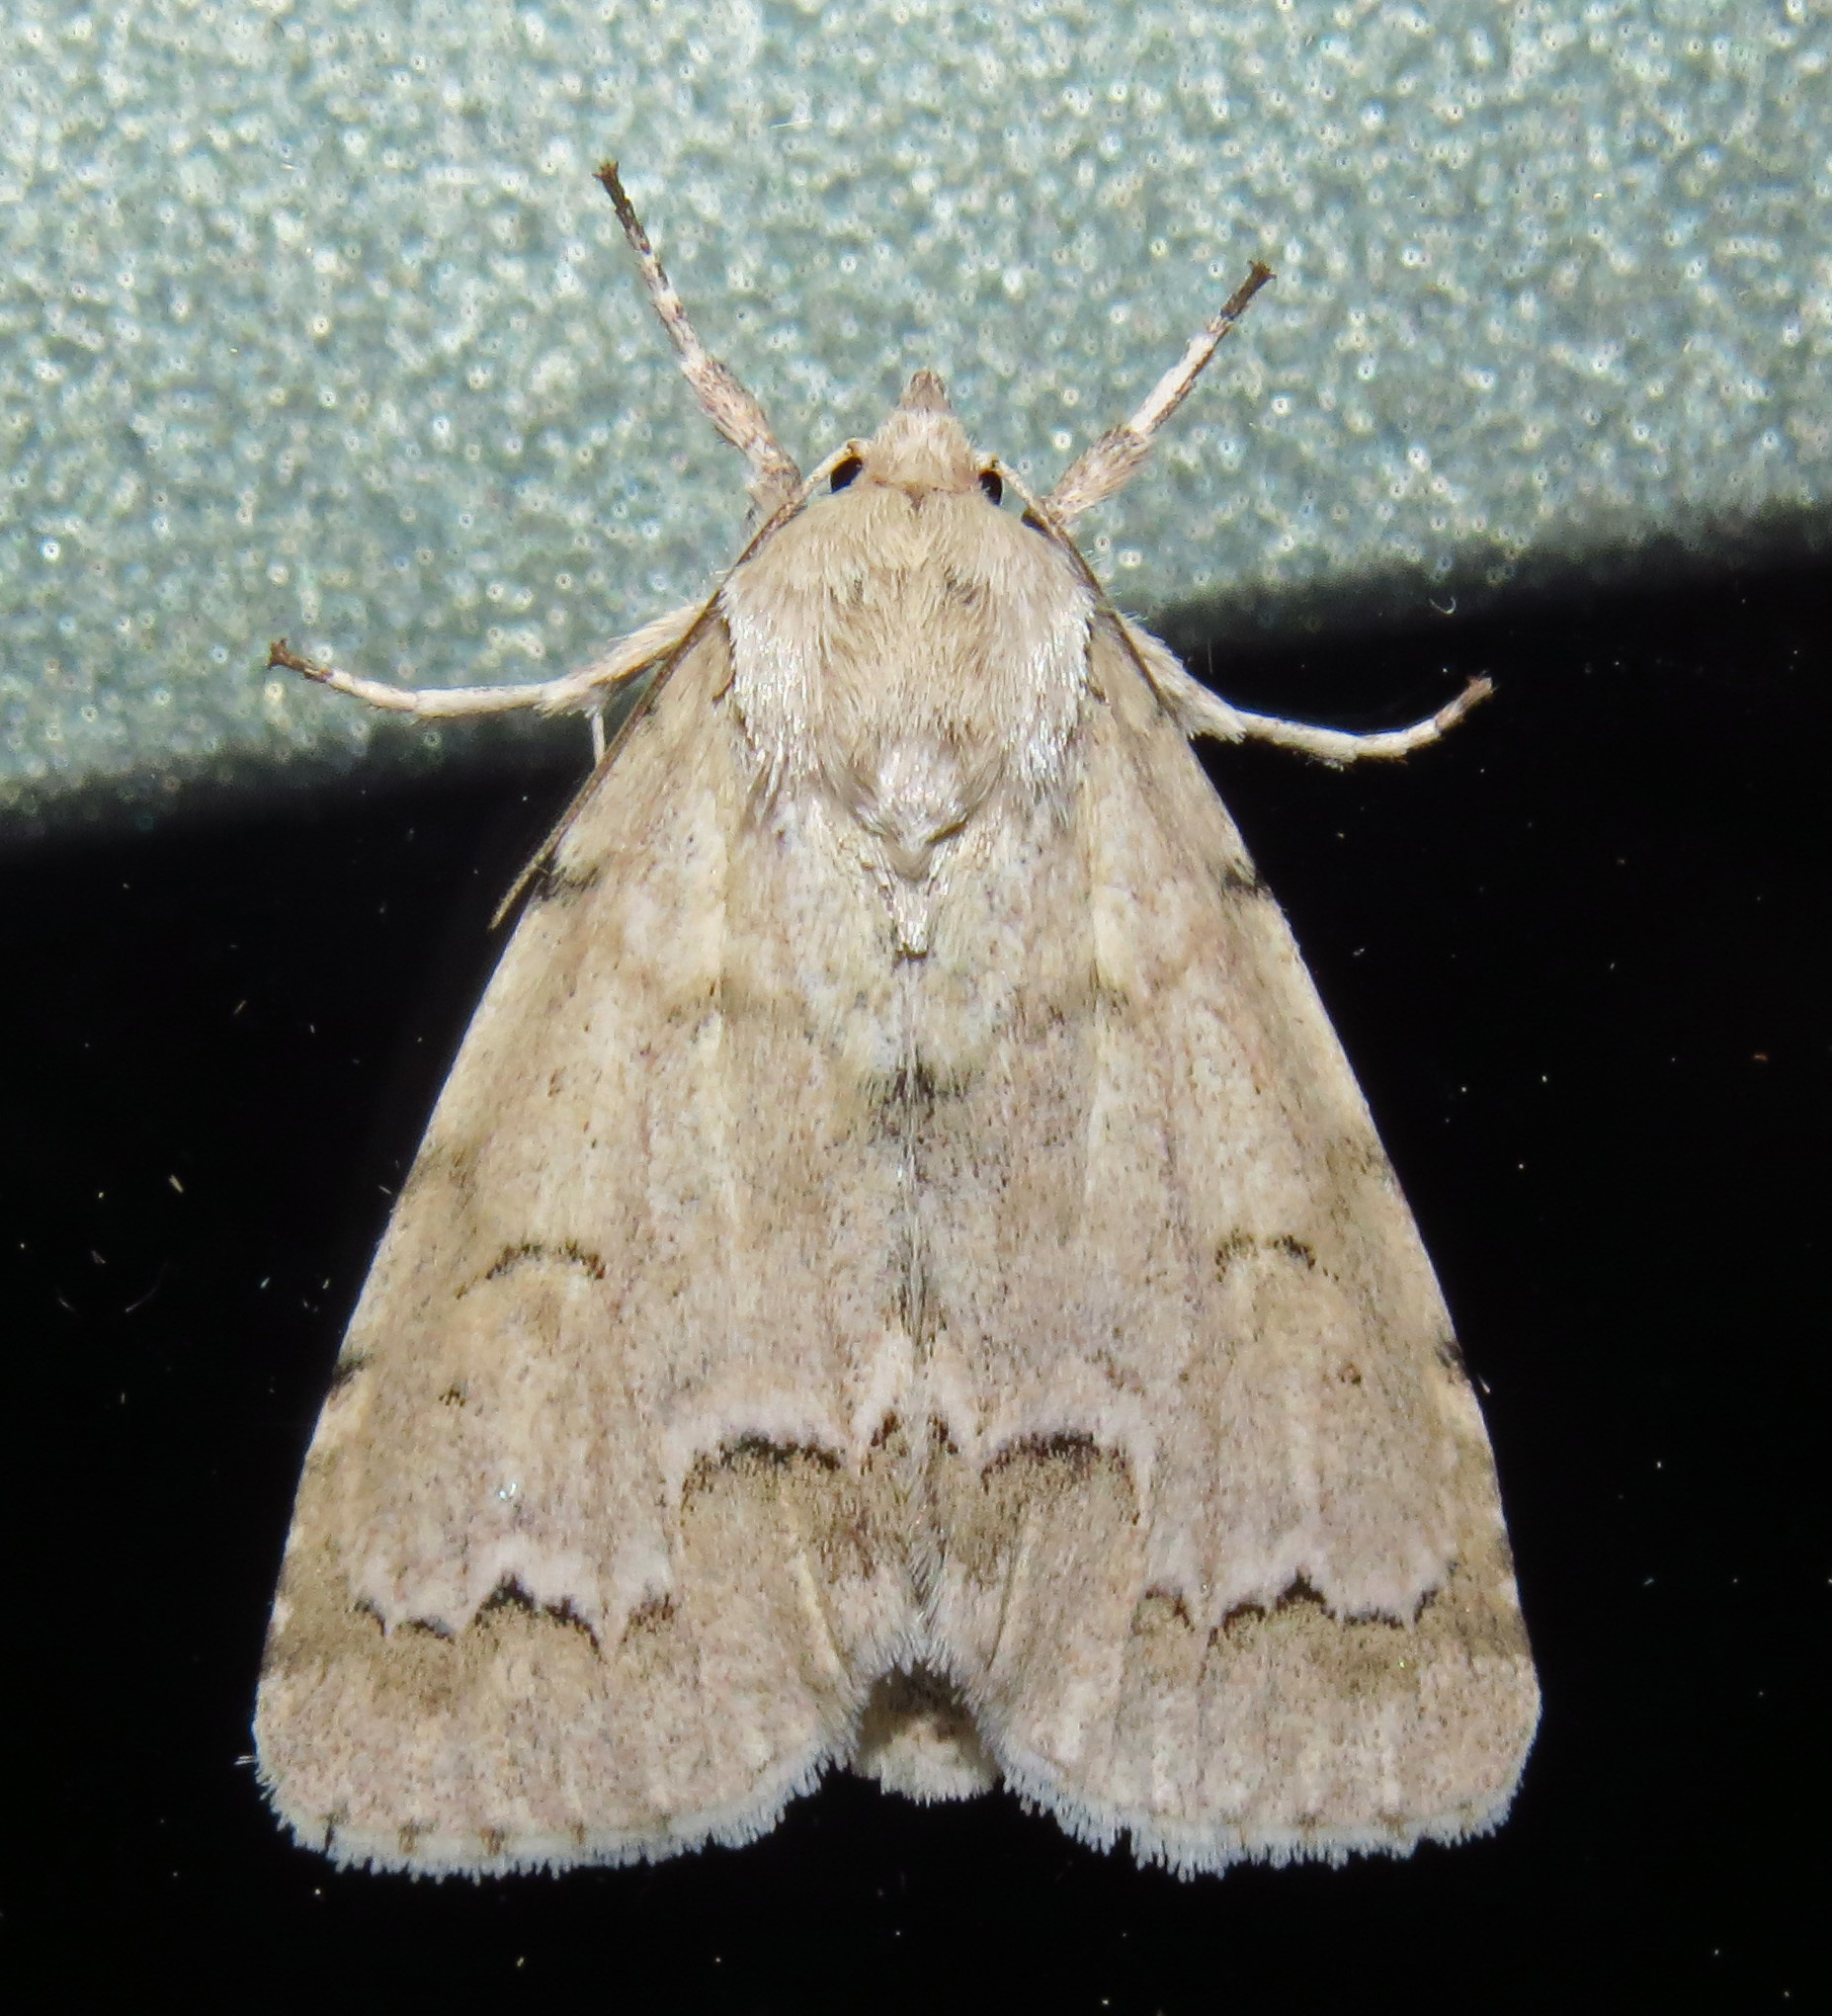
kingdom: Animalia
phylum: Arthropoda
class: Insecta
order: Lepidoptera
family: Noctuidae
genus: Acronicta
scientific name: Acronicta innotata
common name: Unmarked dagger
